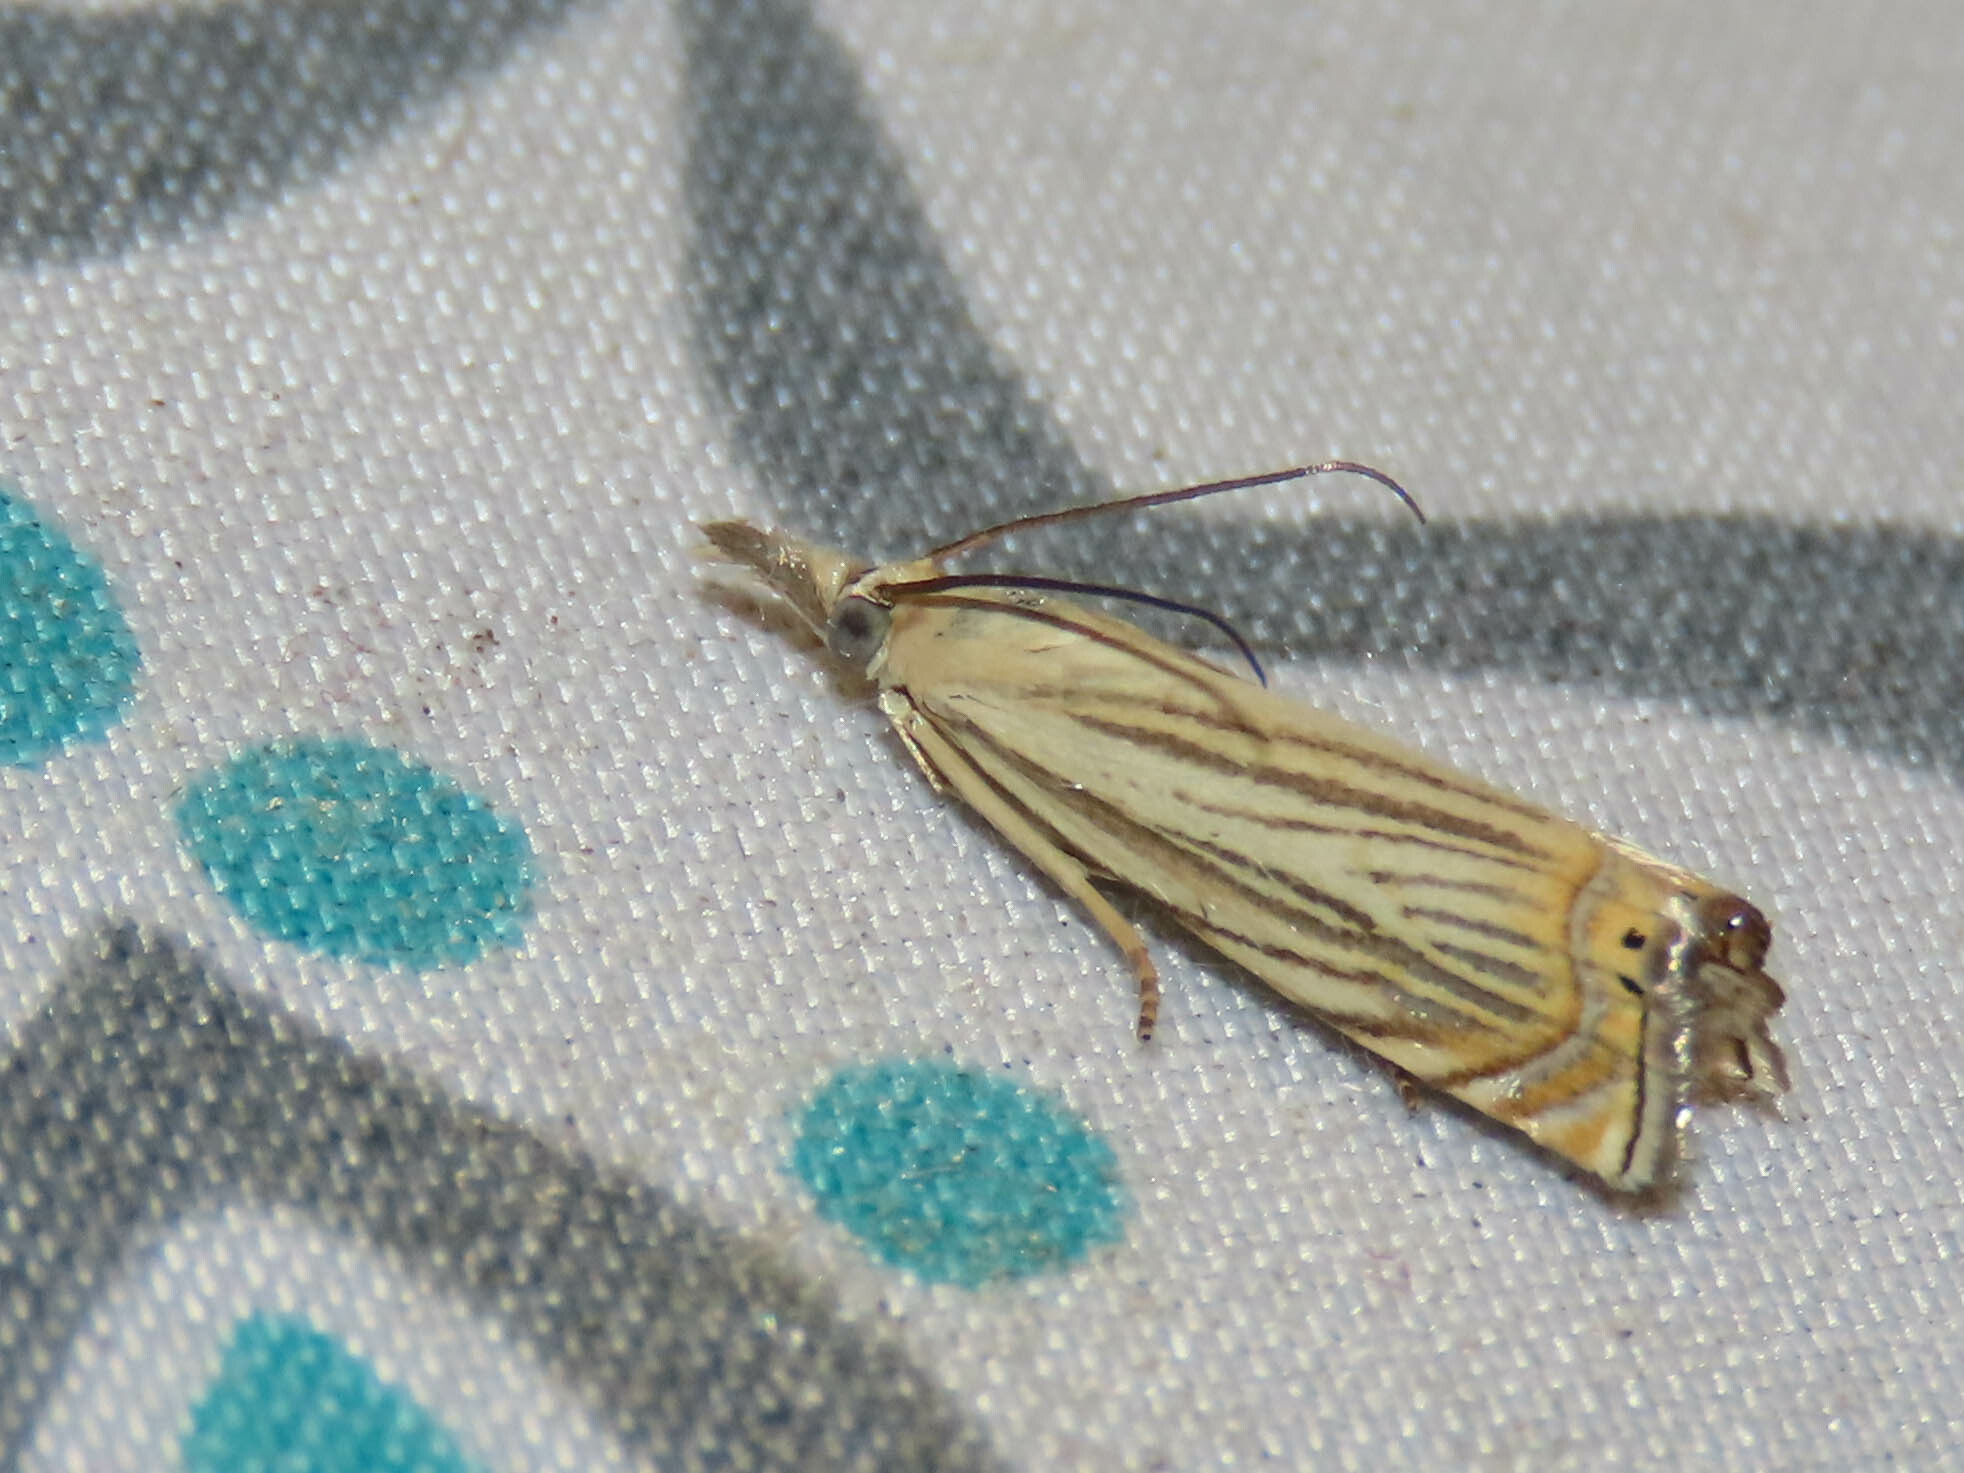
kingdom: Animalia
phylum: Arthropoda
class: Insecta
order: Lepidoptera
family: Crambidae
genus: Chrysoteuchia
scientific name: Chrysoteuchia topiarius
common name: Topiary grass-veneer
